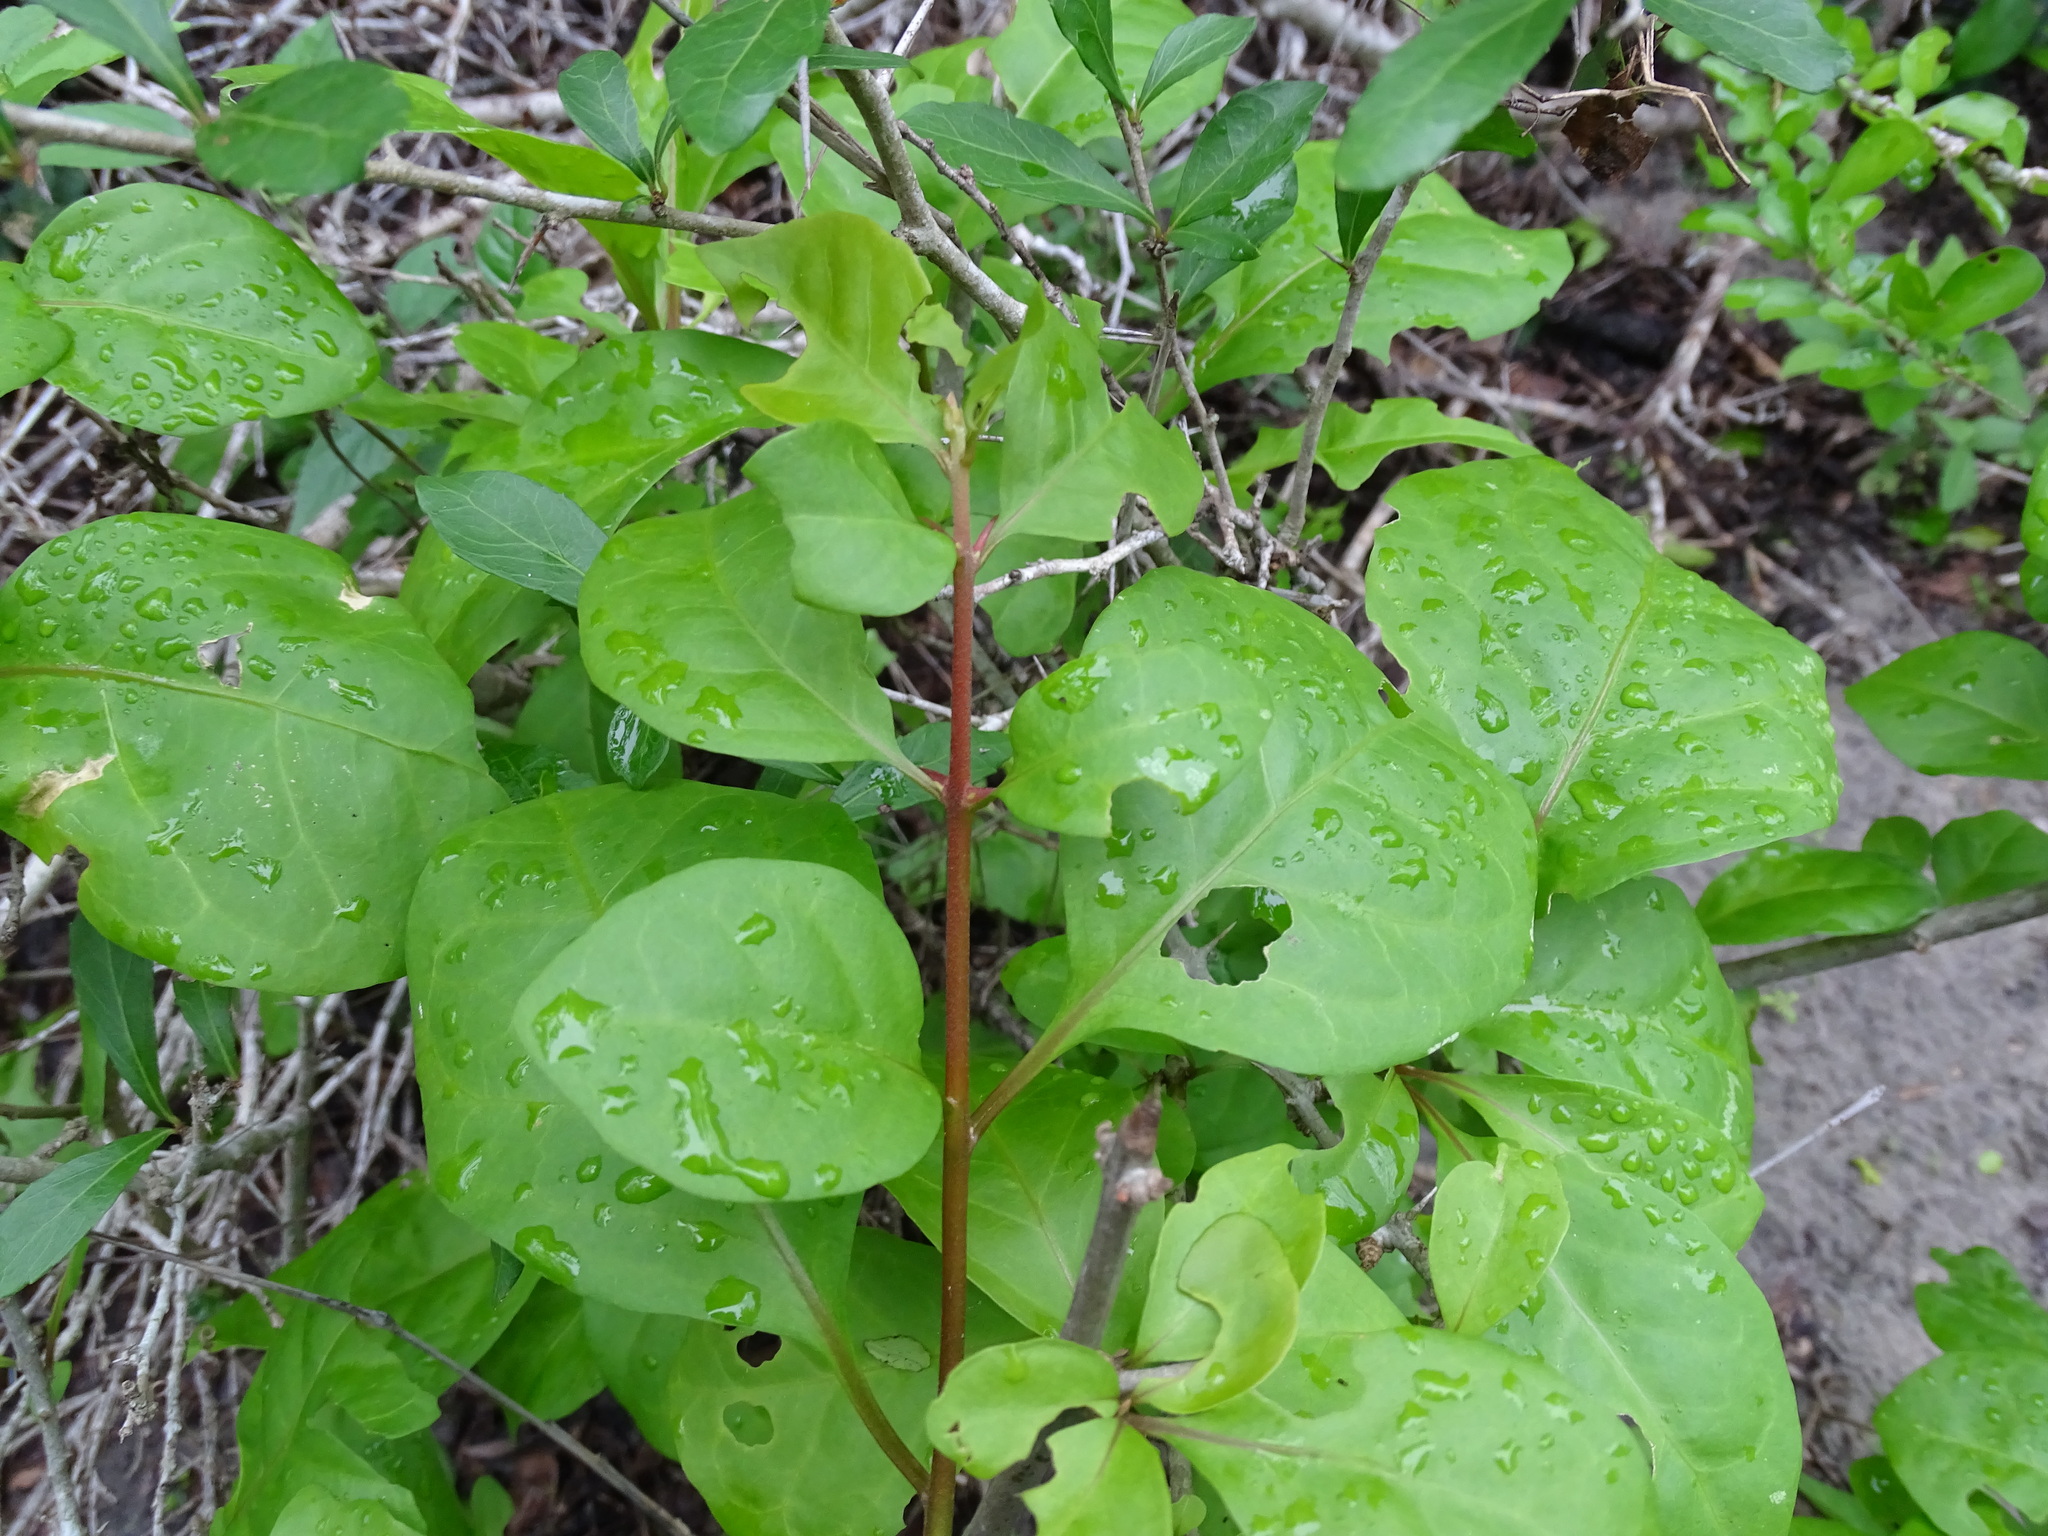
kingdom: Plantae
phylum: Tracheophyta
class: Magnoliopsida
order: Caryophyllales
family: Nyctaginaceae
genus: Pisonia
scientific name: Pisonia aculeata
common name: Cockspur vine
